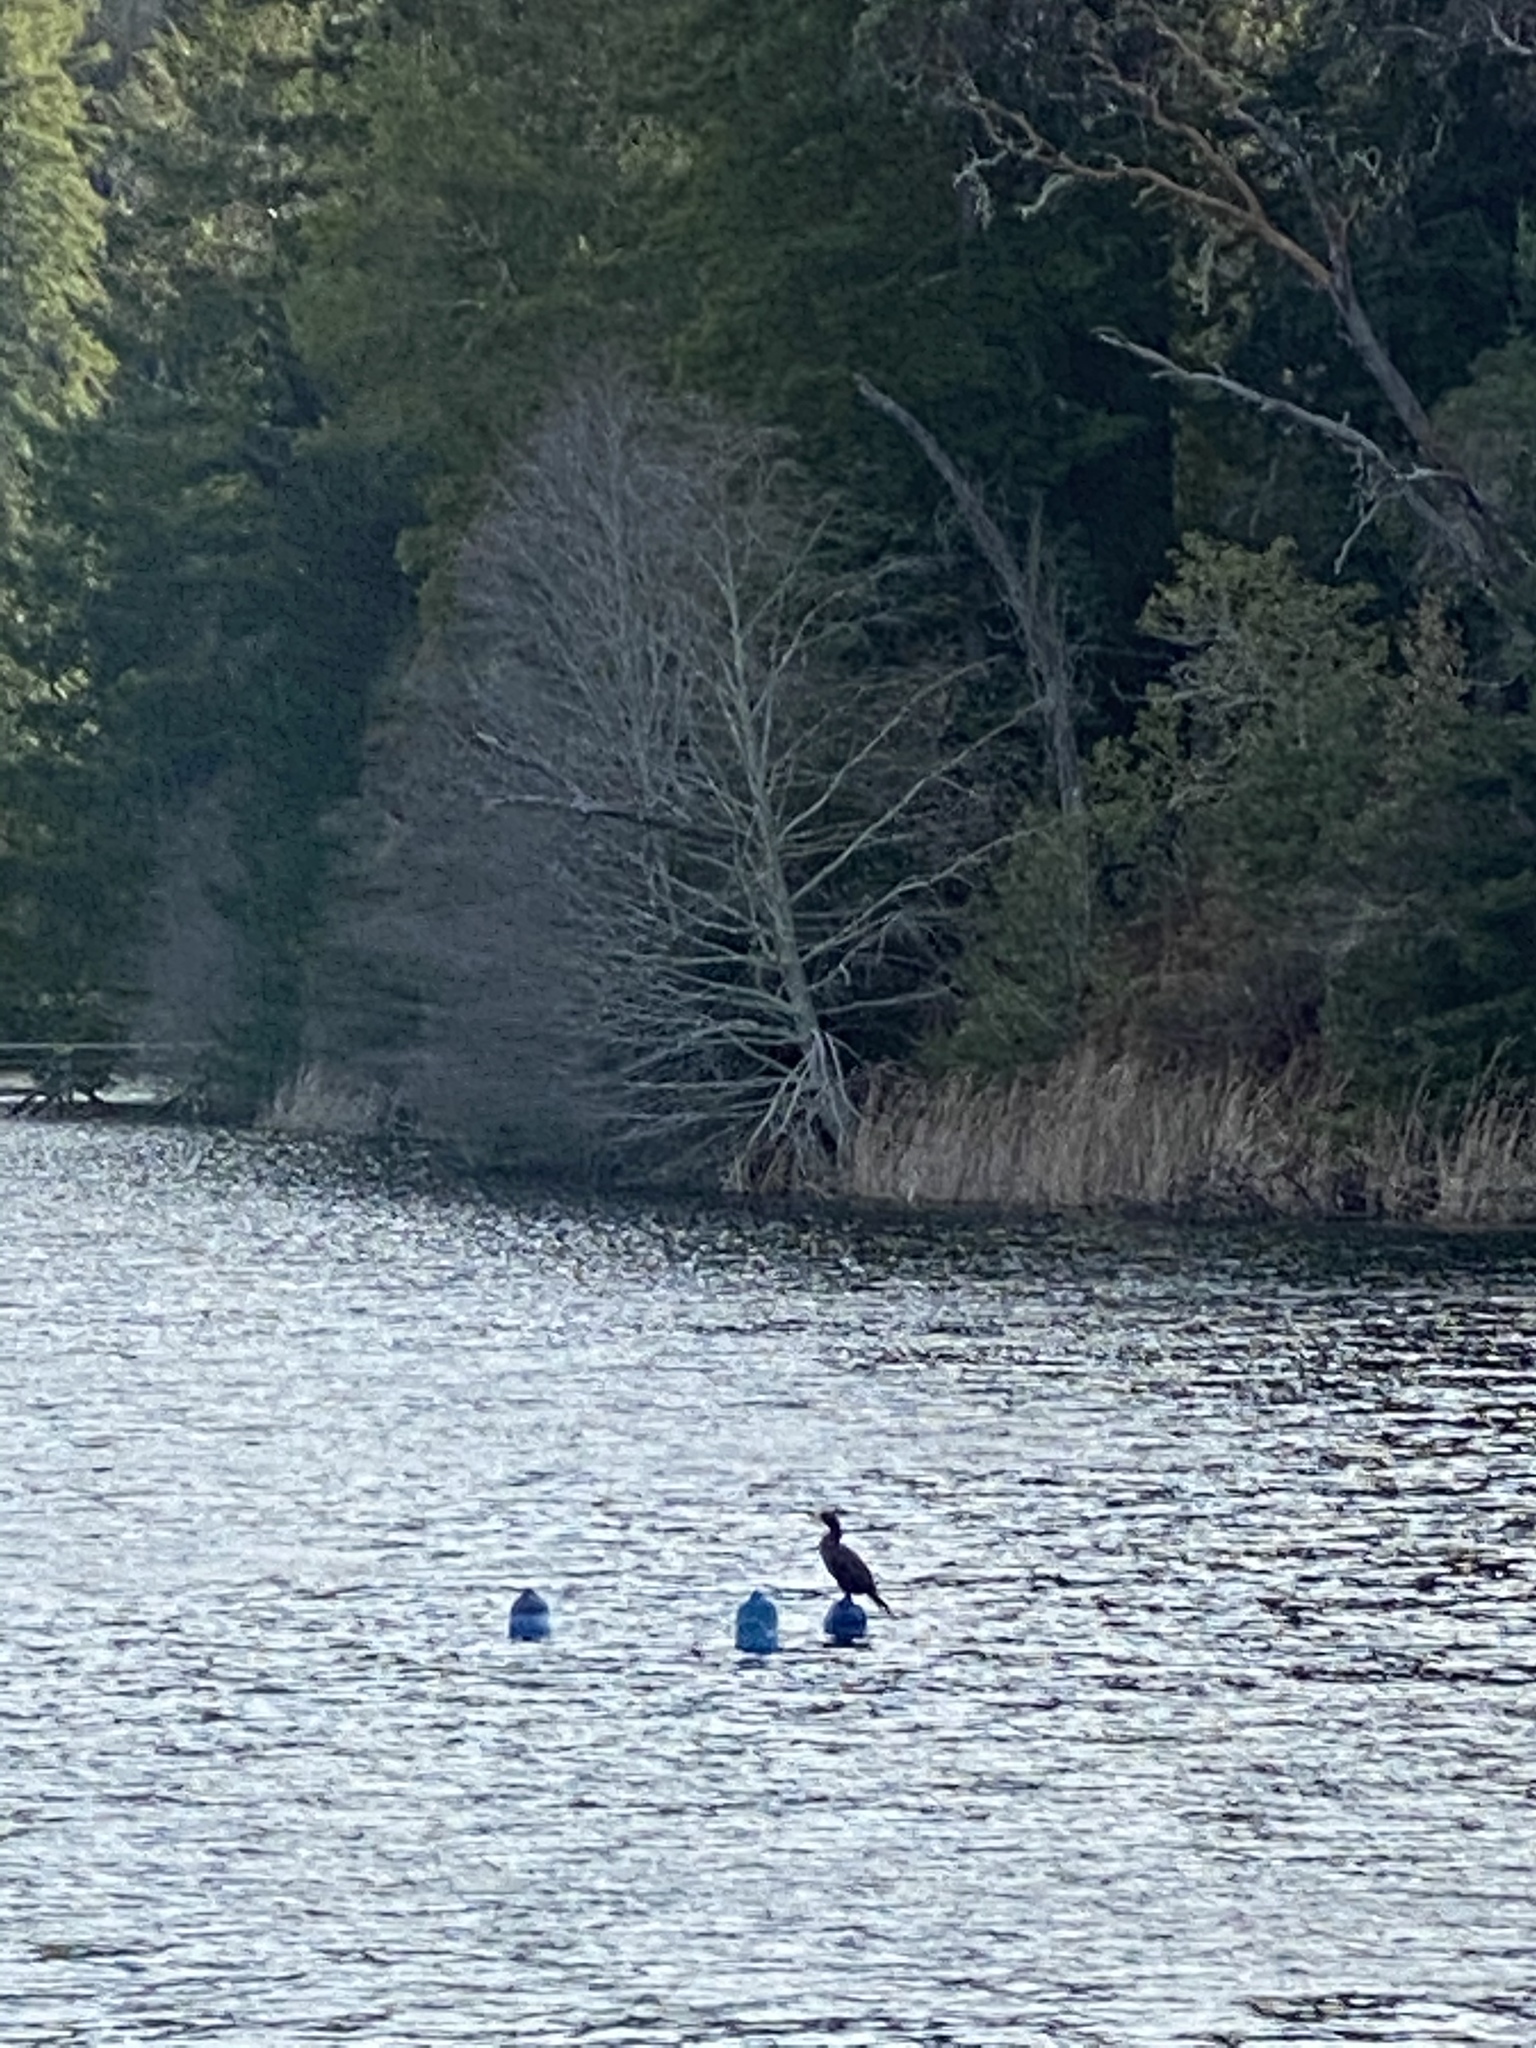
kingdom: Animalia
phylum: Chordata
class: Aves
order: Suliformes
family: Phalacrocoracidae
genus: Phalacrocorax
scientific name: Phalacrocorax auritus
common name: Double-crested cormorant
